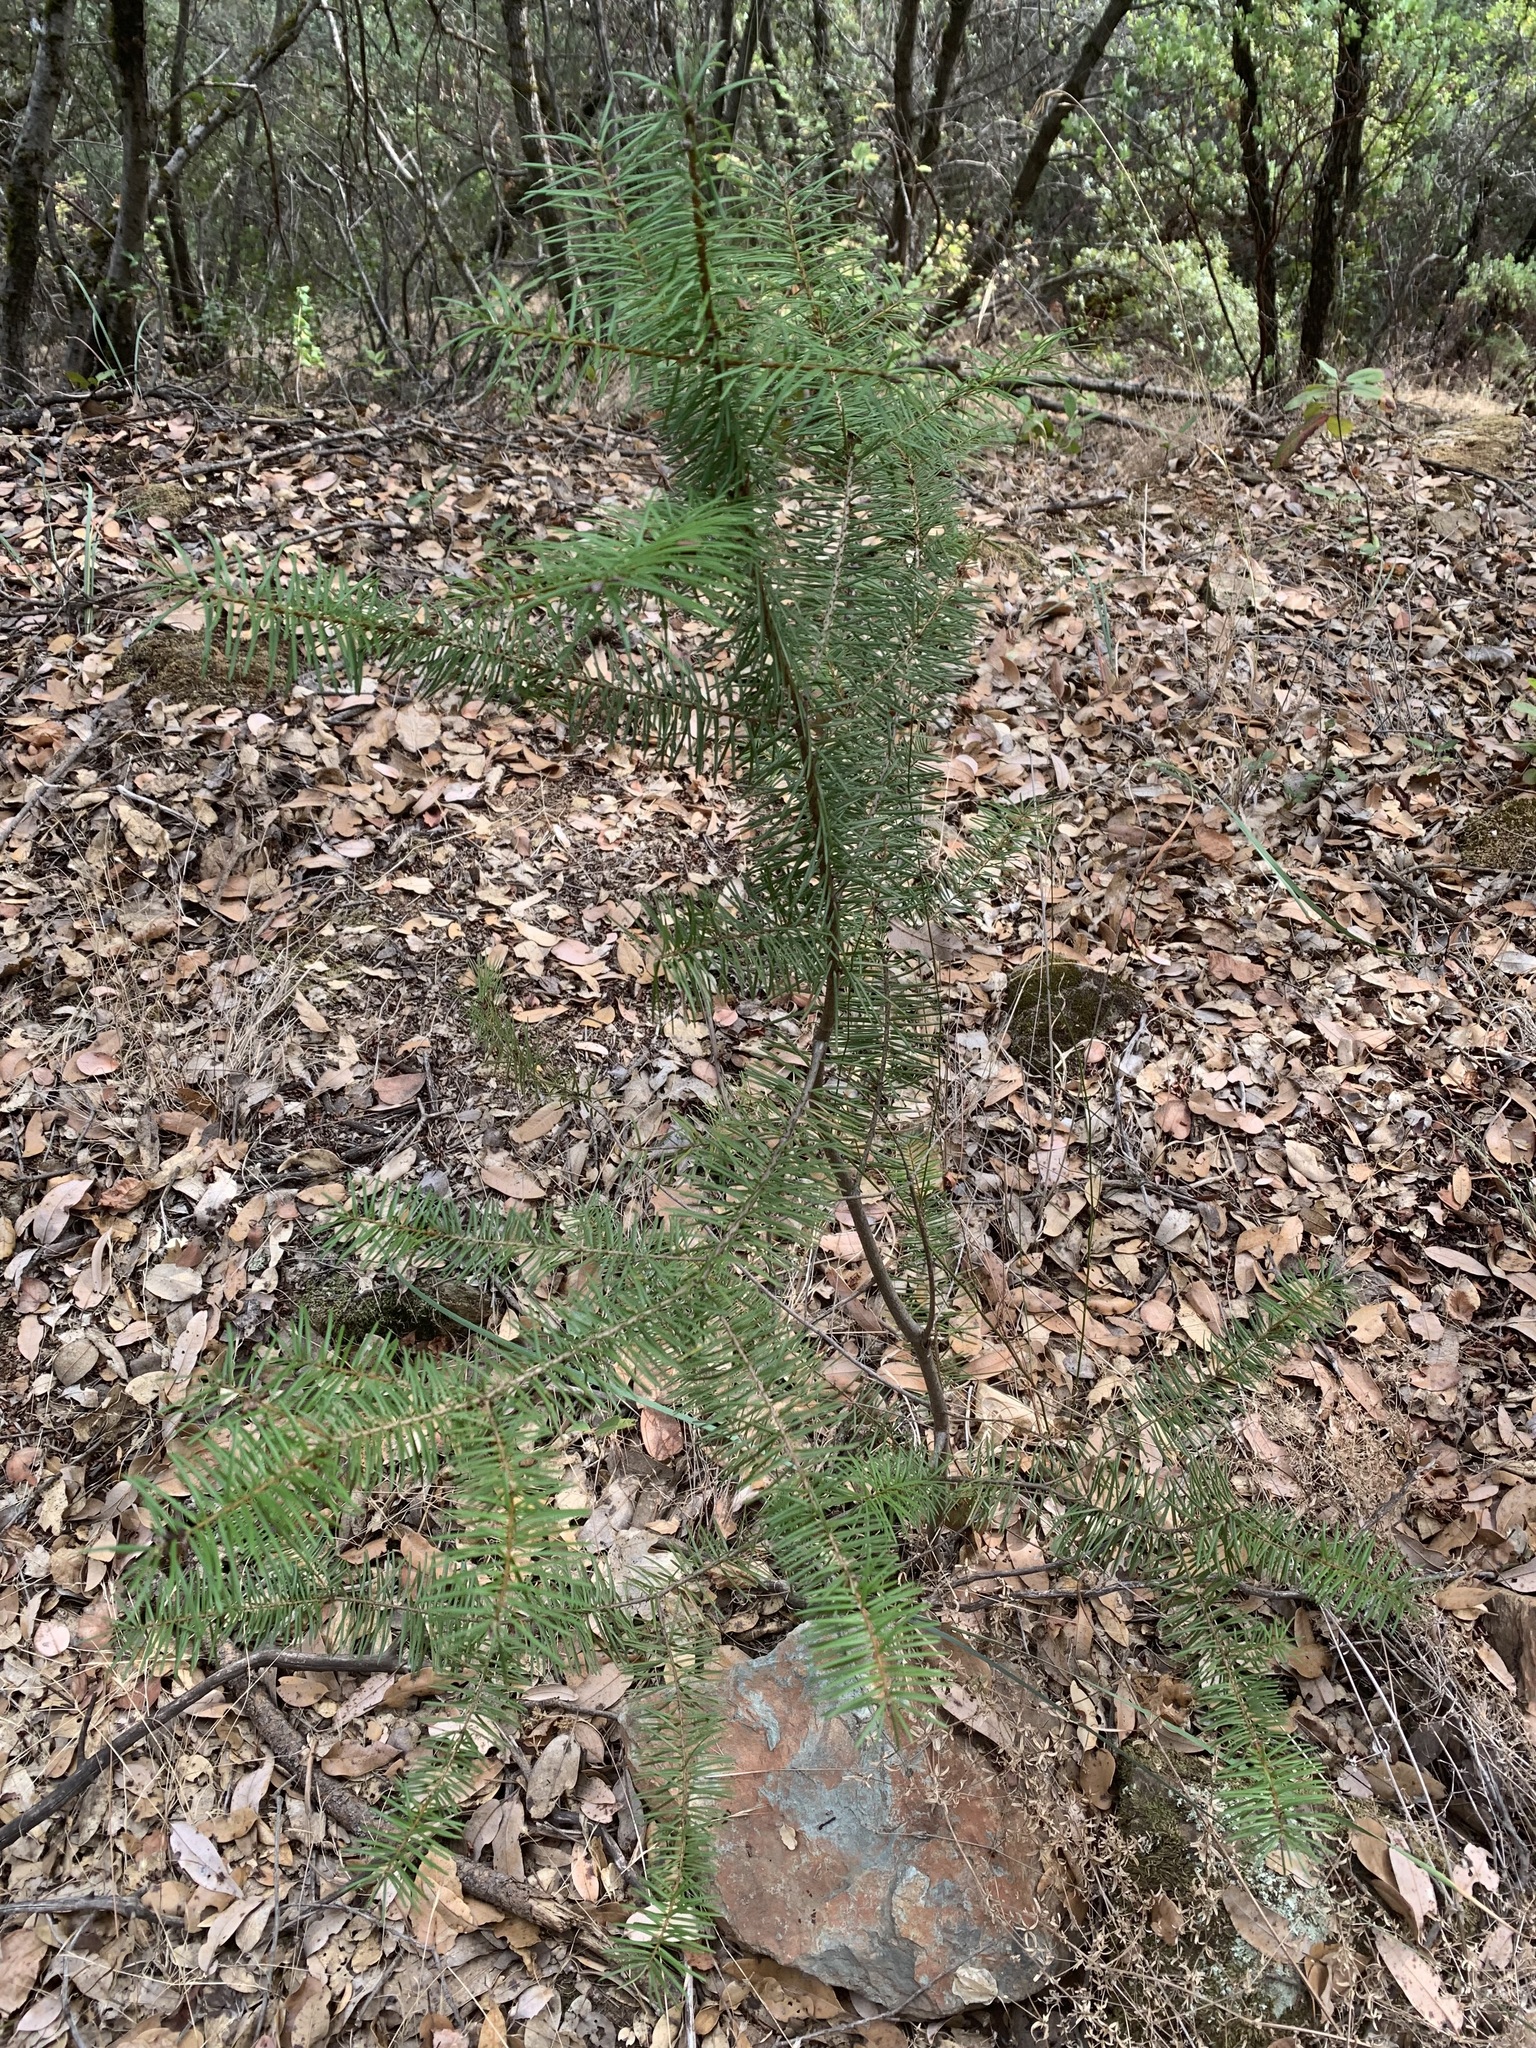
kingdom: Plantae
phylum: Tracheophyta
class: Pinopsida
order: Pinales
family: Pinaceae
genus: Pseudotsuga
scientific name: Pseudotsuga menziesii
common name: Douglas fir
